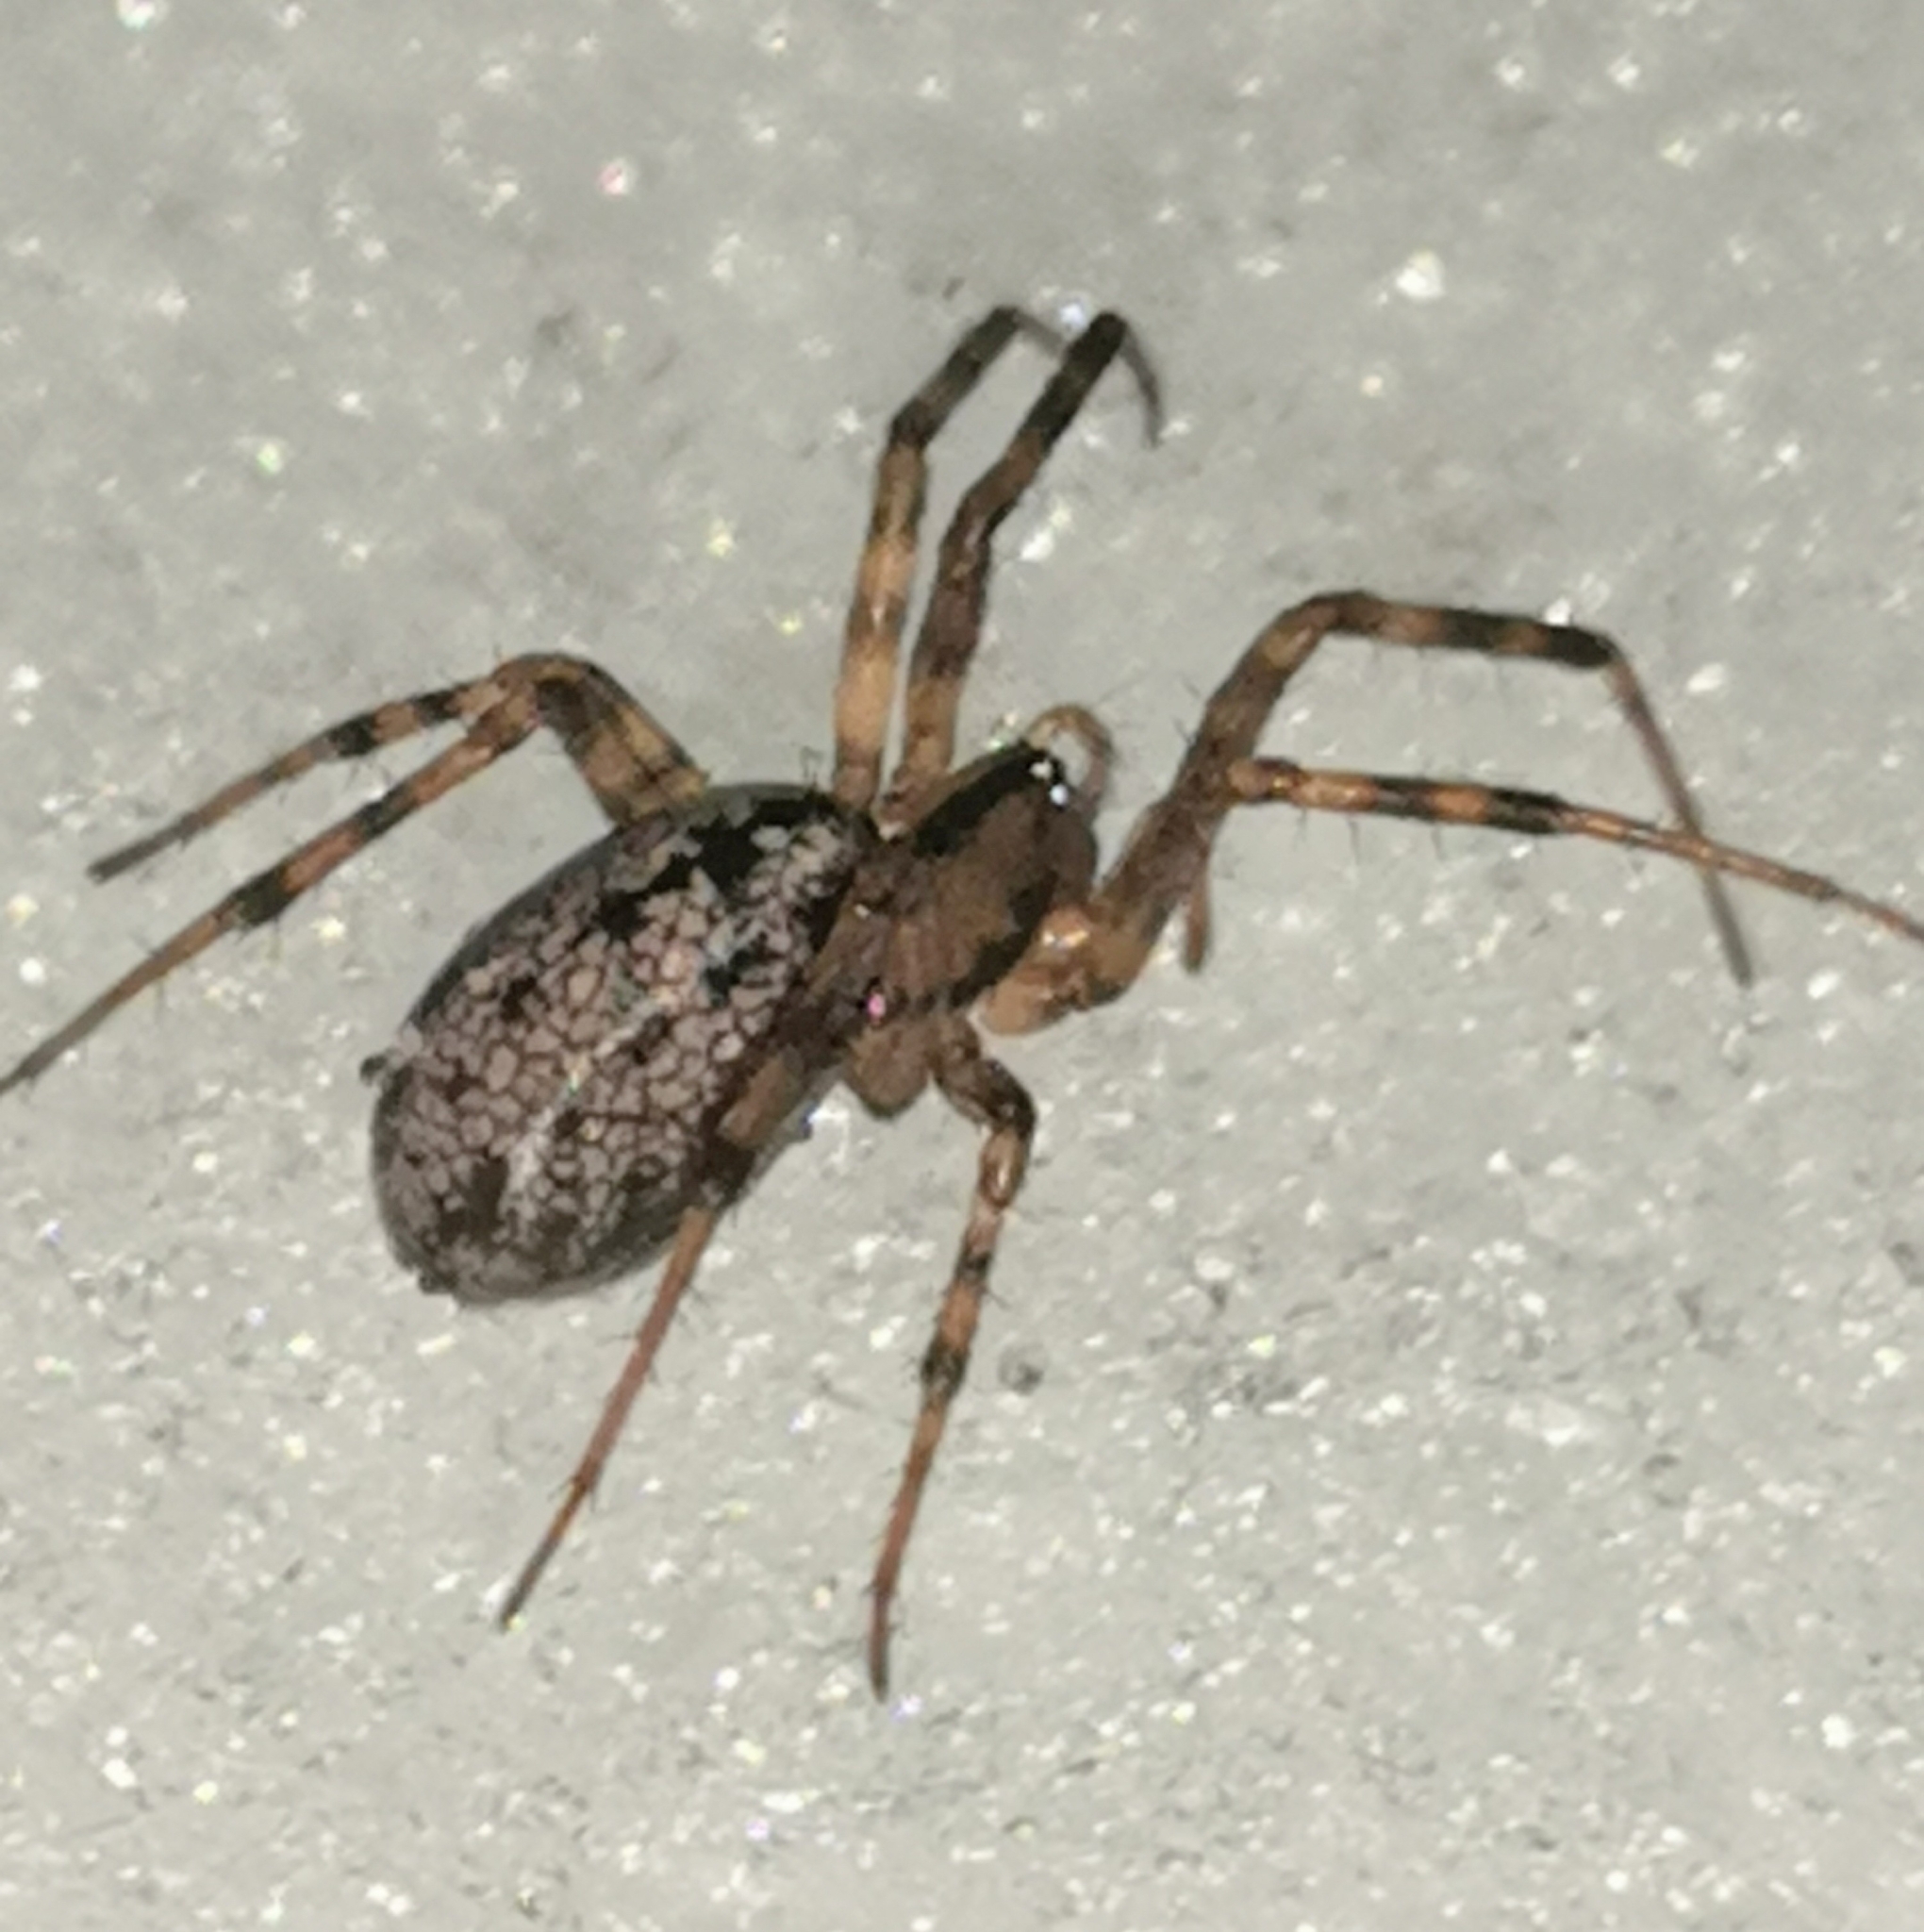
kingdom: Animalia
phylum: Arthropoda
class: Arachnida
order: Araneae
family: Linyphiidae
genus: Stemonyphantes
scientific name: Stemonyphantes lineatus
